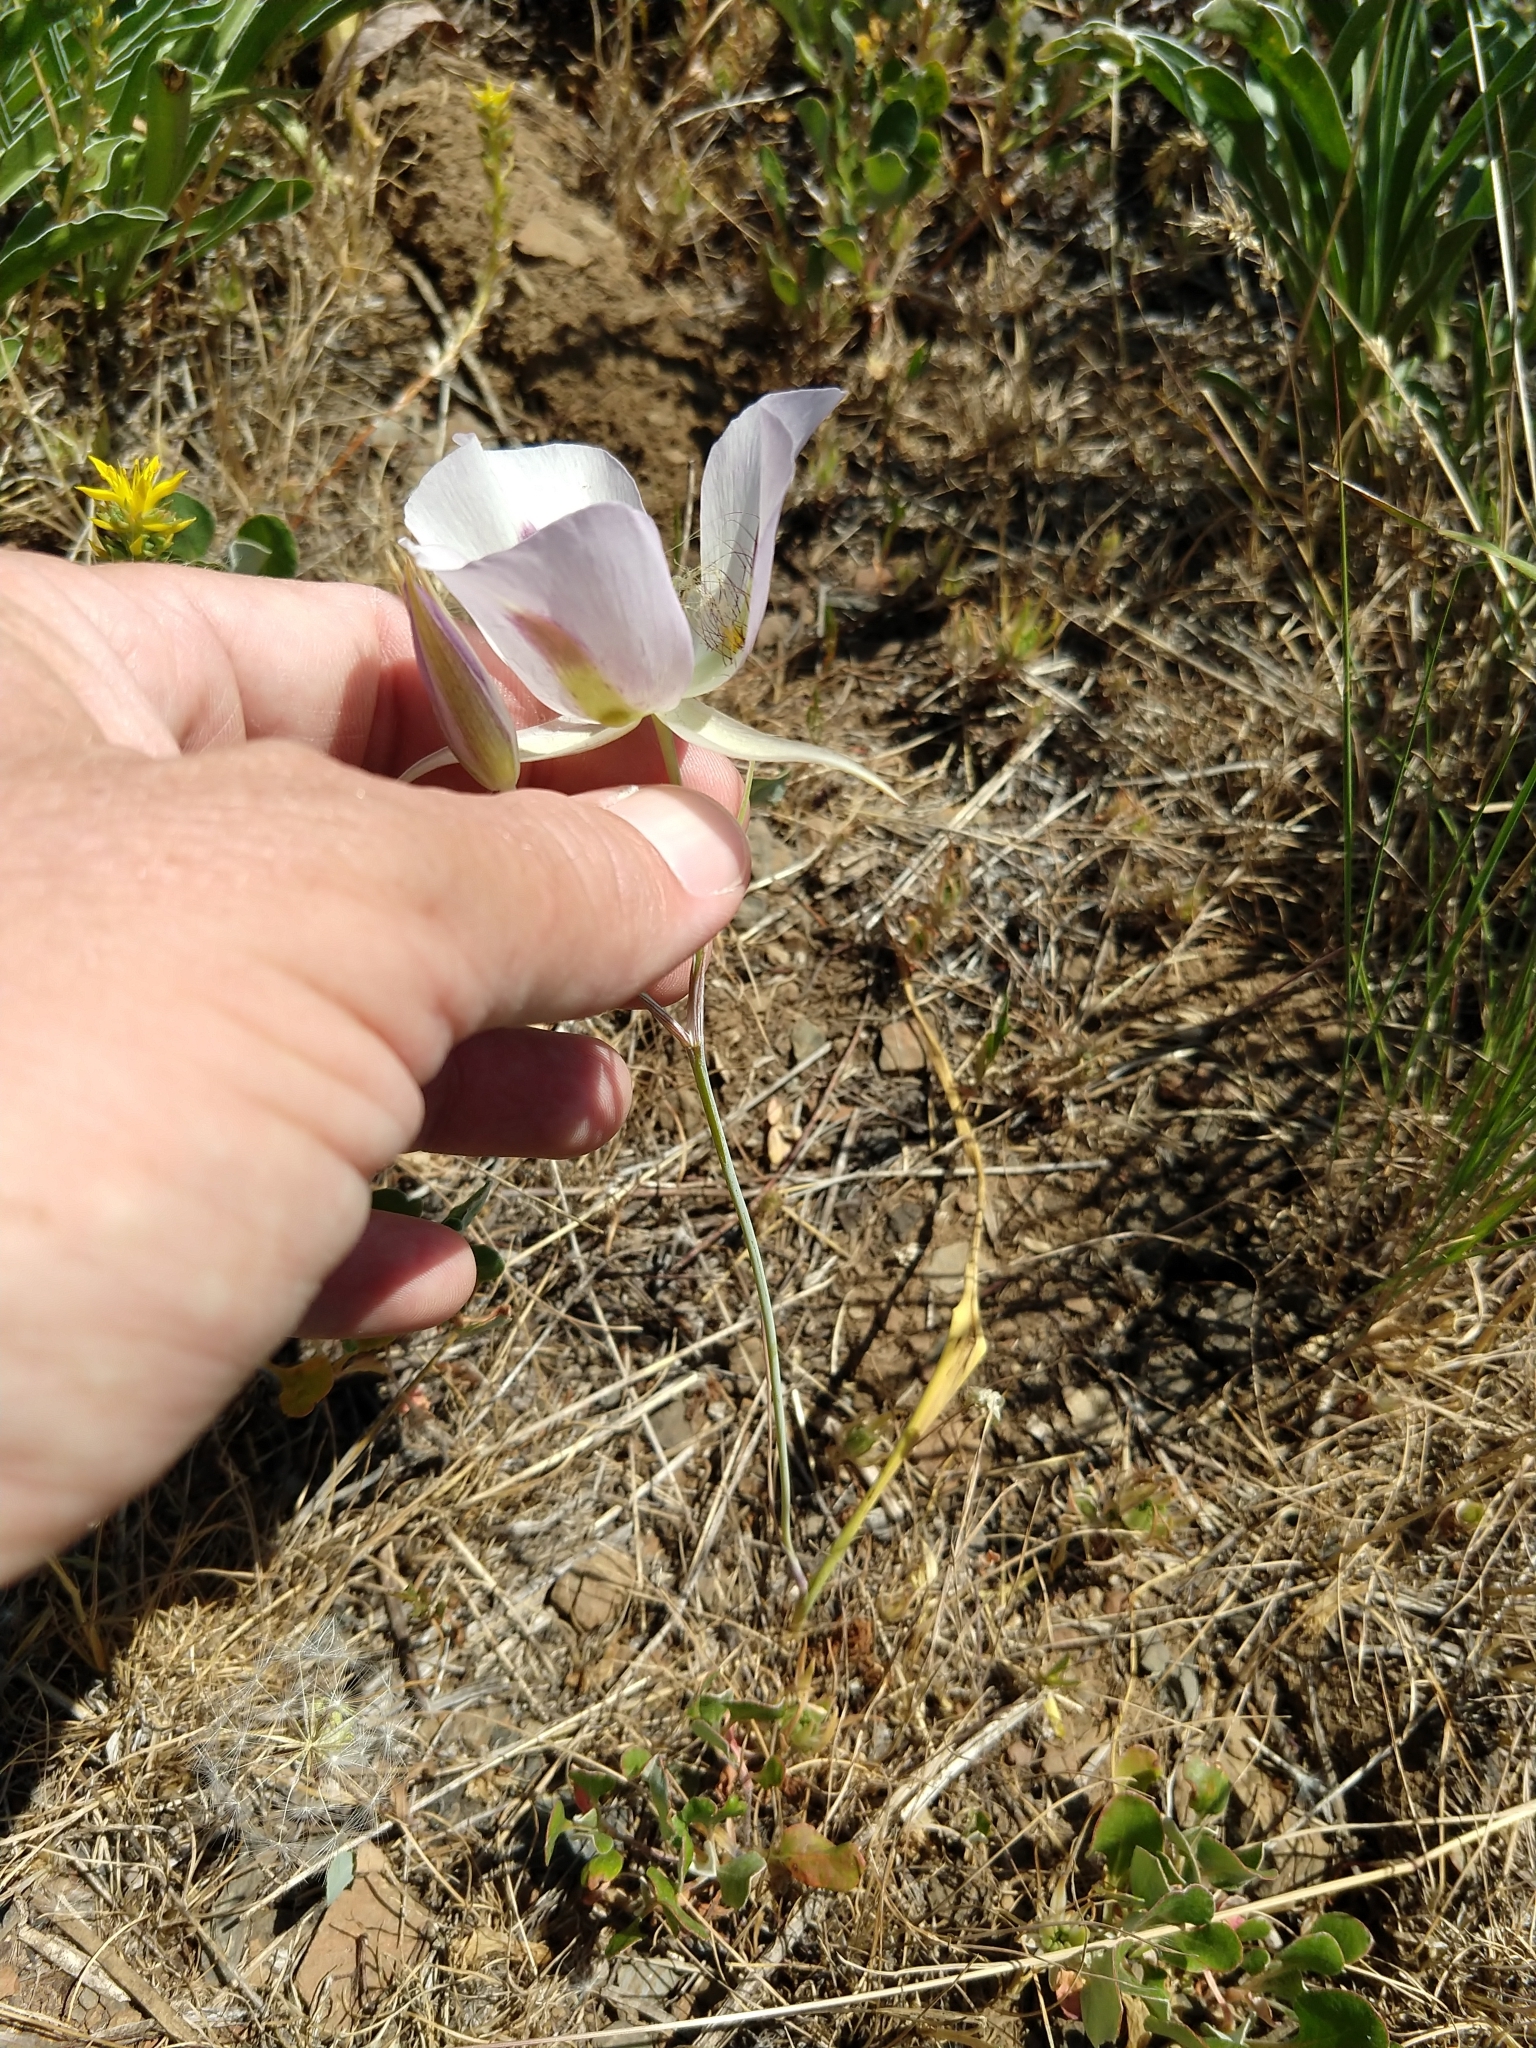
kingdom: Plantae
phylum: Tracheophyta
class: Liliopsida
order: Liliales
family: Liliaceae
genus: Calochortus
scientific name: Calochortus eurycarpus
